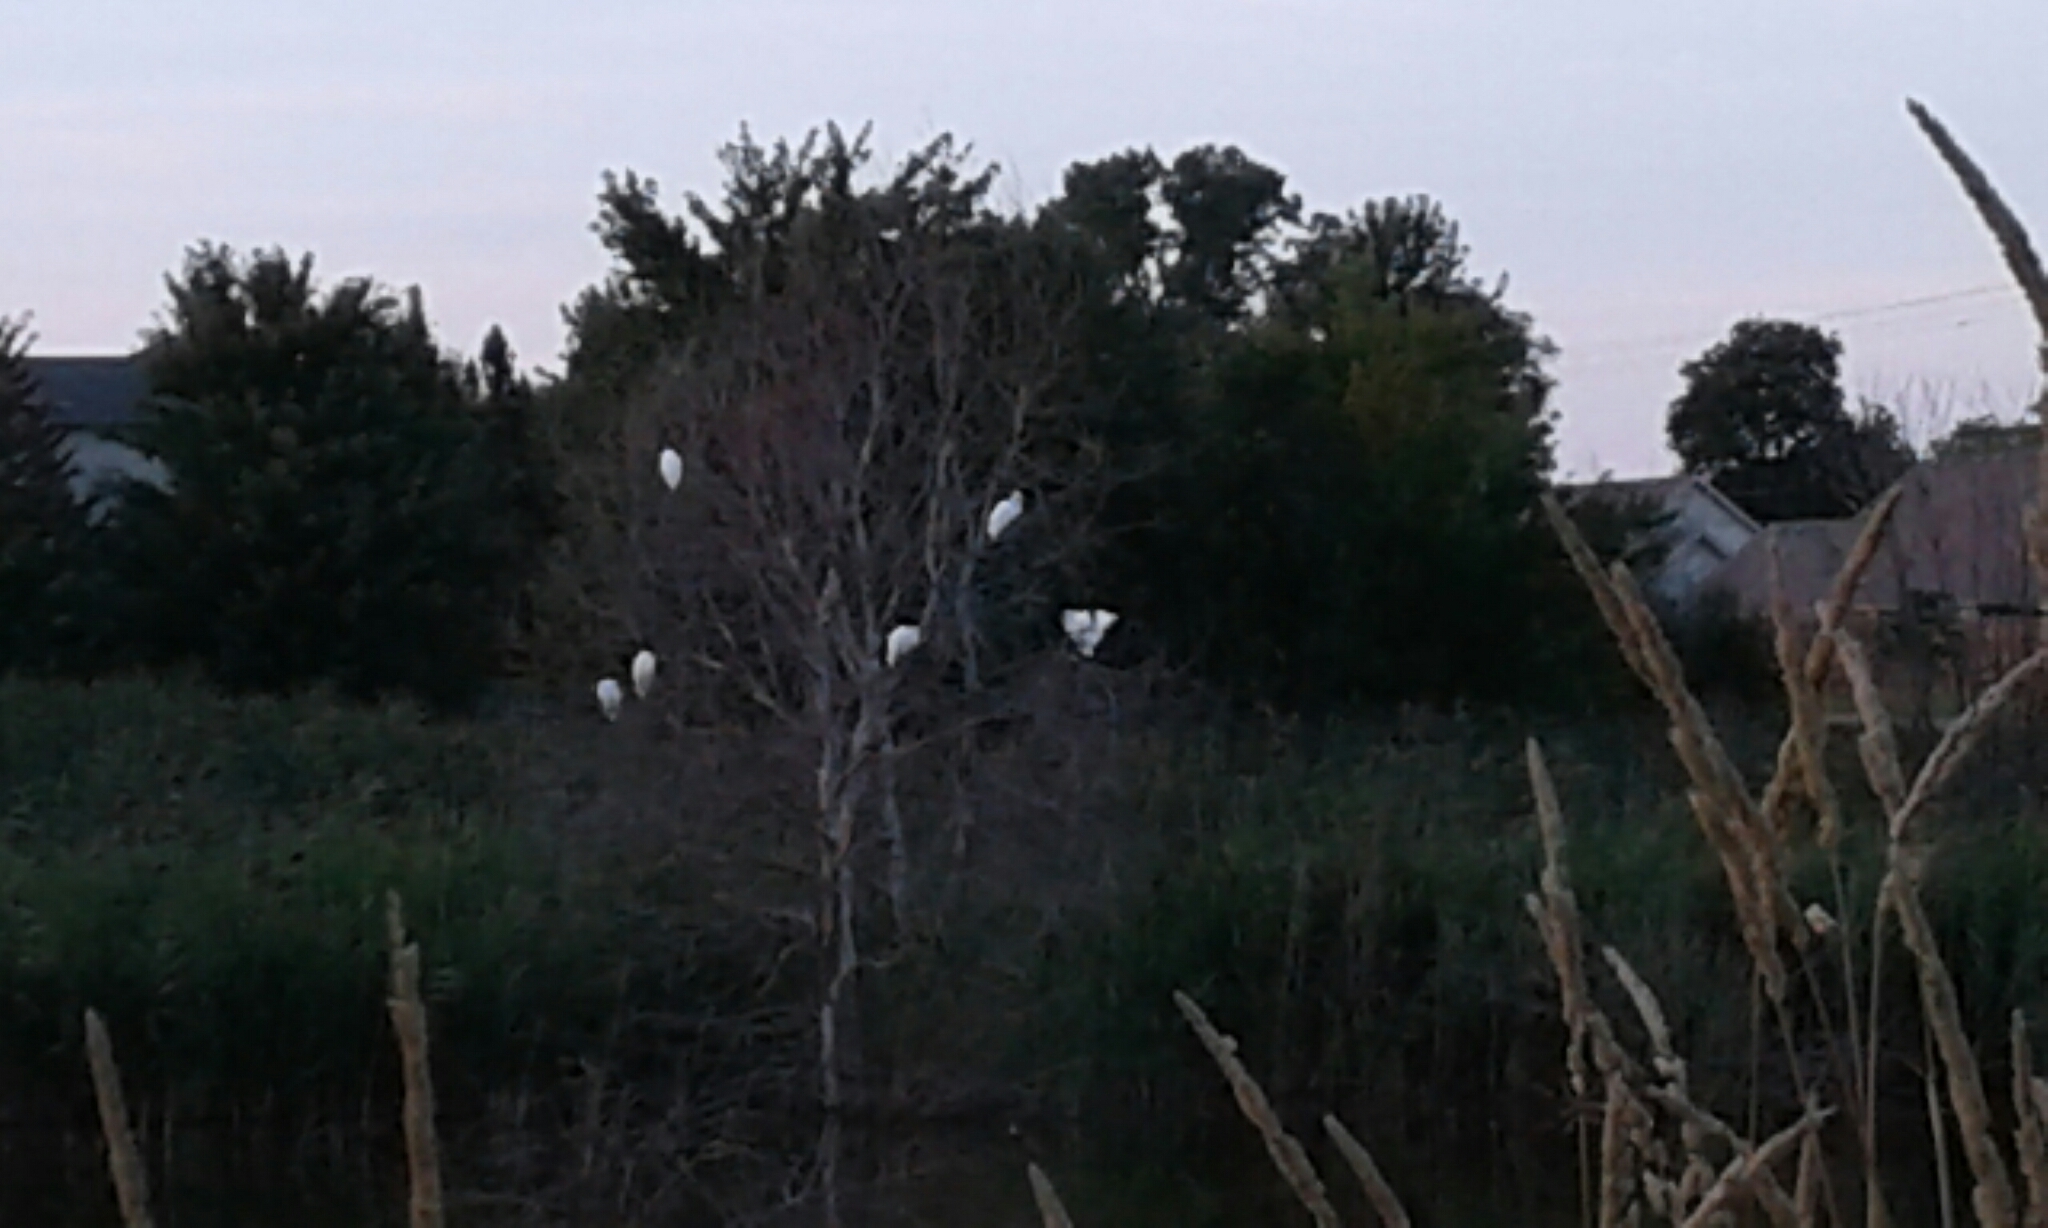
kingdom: Animalia
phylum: Chordata
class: Aves
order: Pelecaniformes
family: Ardeidae
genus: Ardea
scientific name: Ardea alba
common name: Great egret
